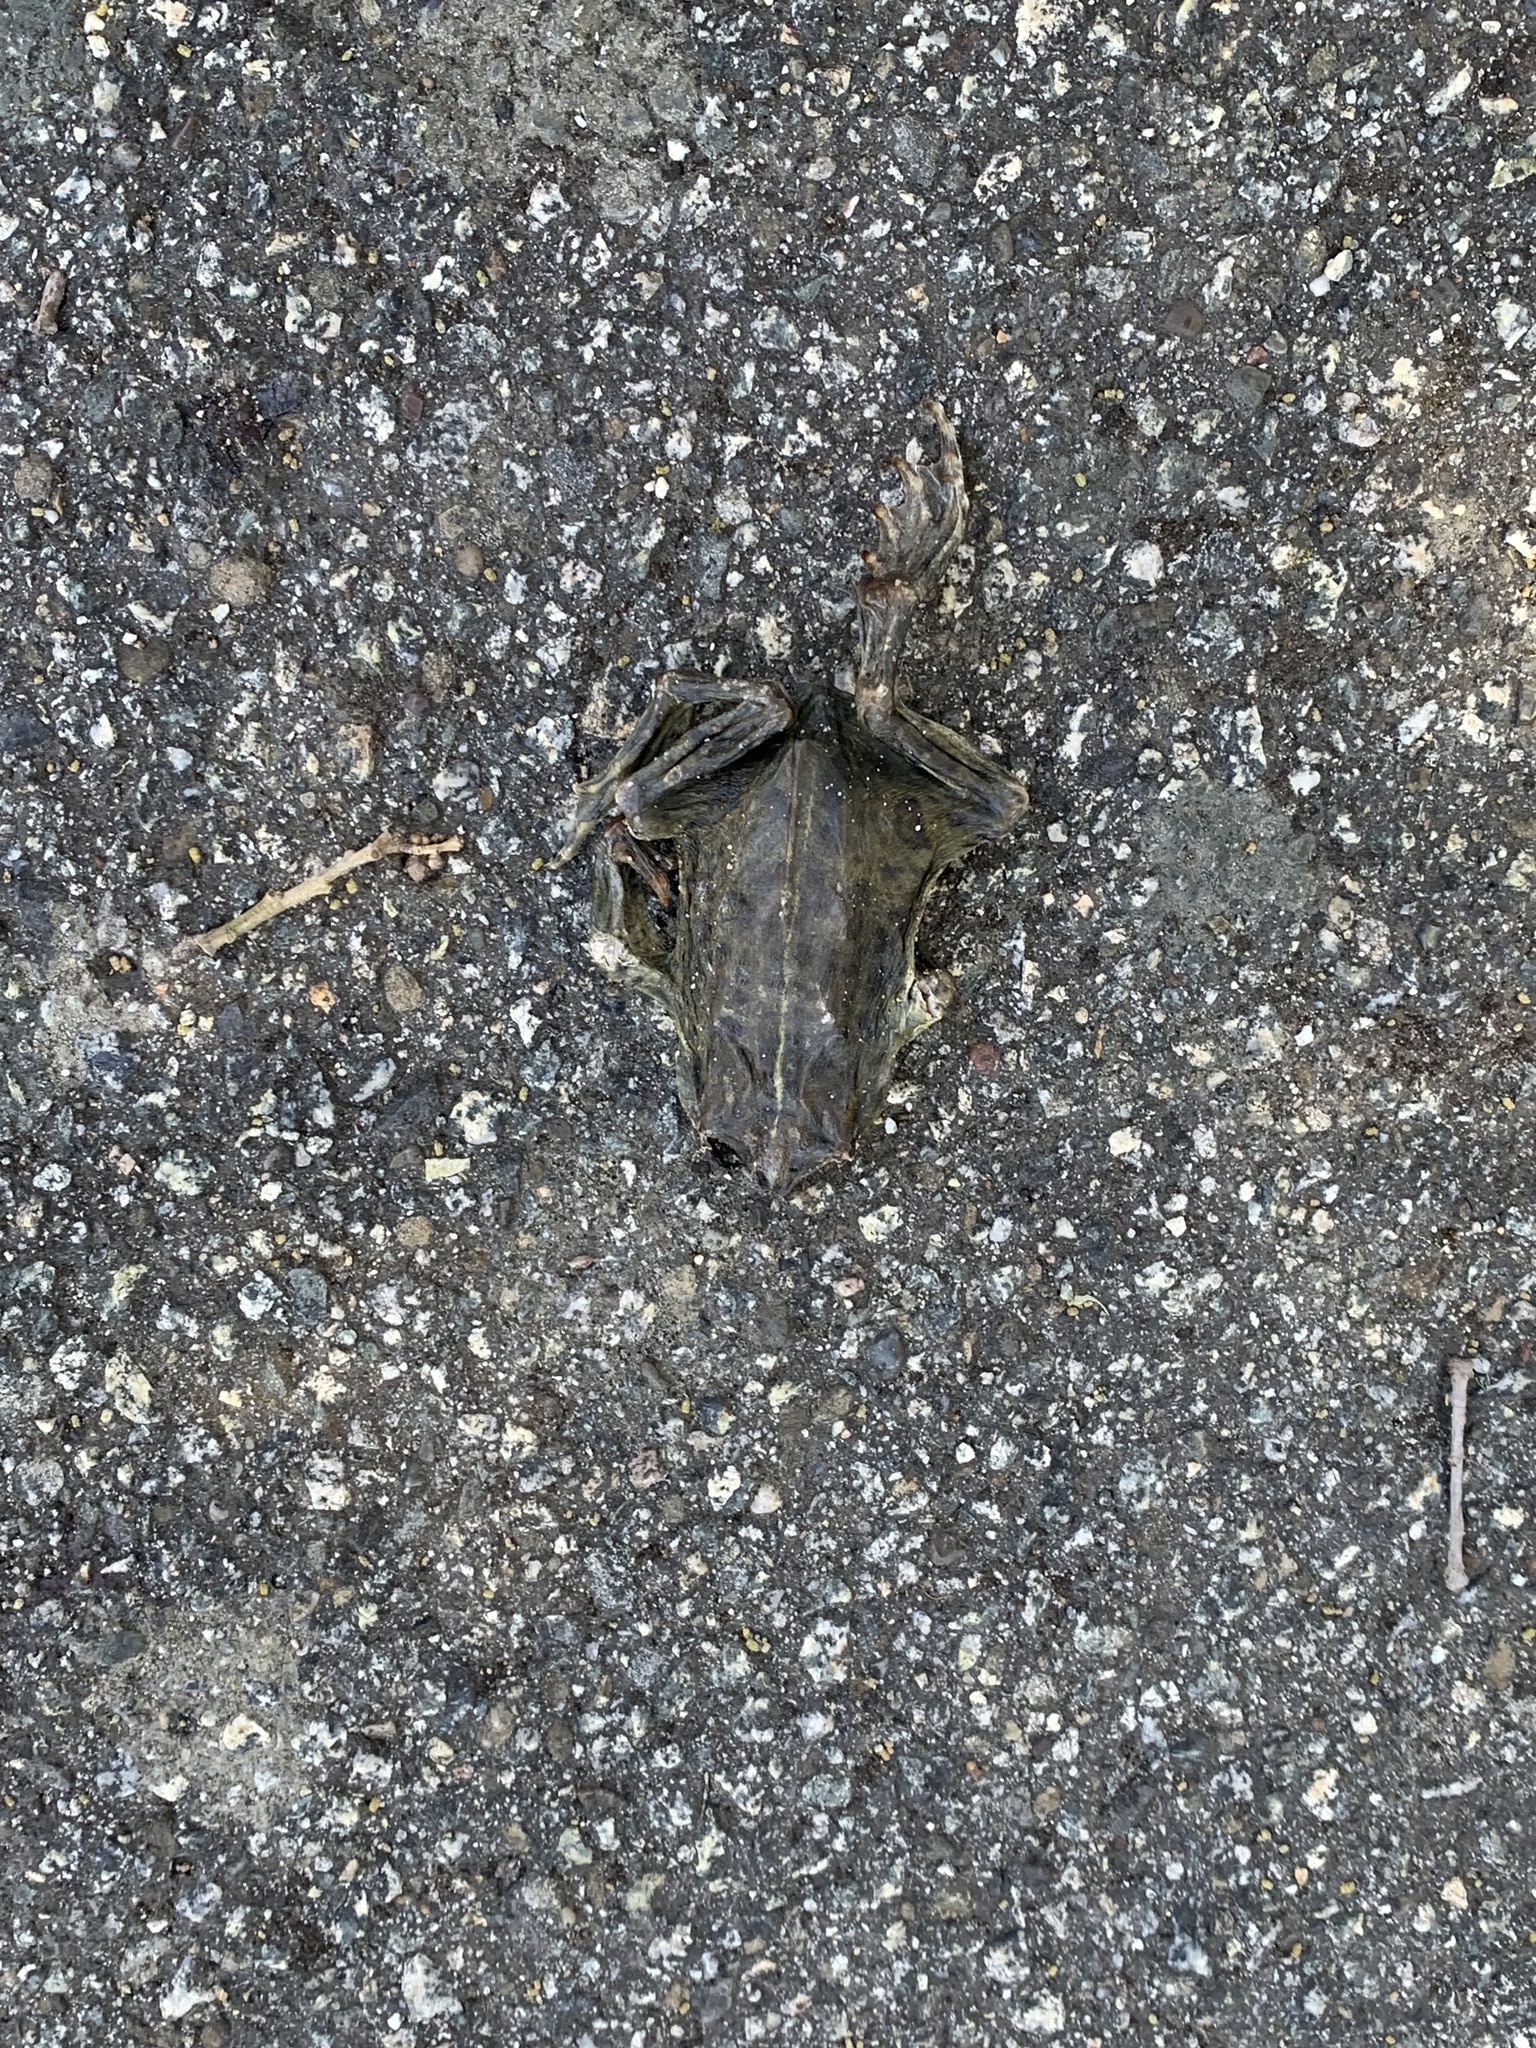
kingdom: Animalia
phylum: Chordata
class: Amphibia
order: Anura
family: Bufonidae
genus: Anaxyrus
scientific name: Anaxyrus boreas
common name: Western toad
